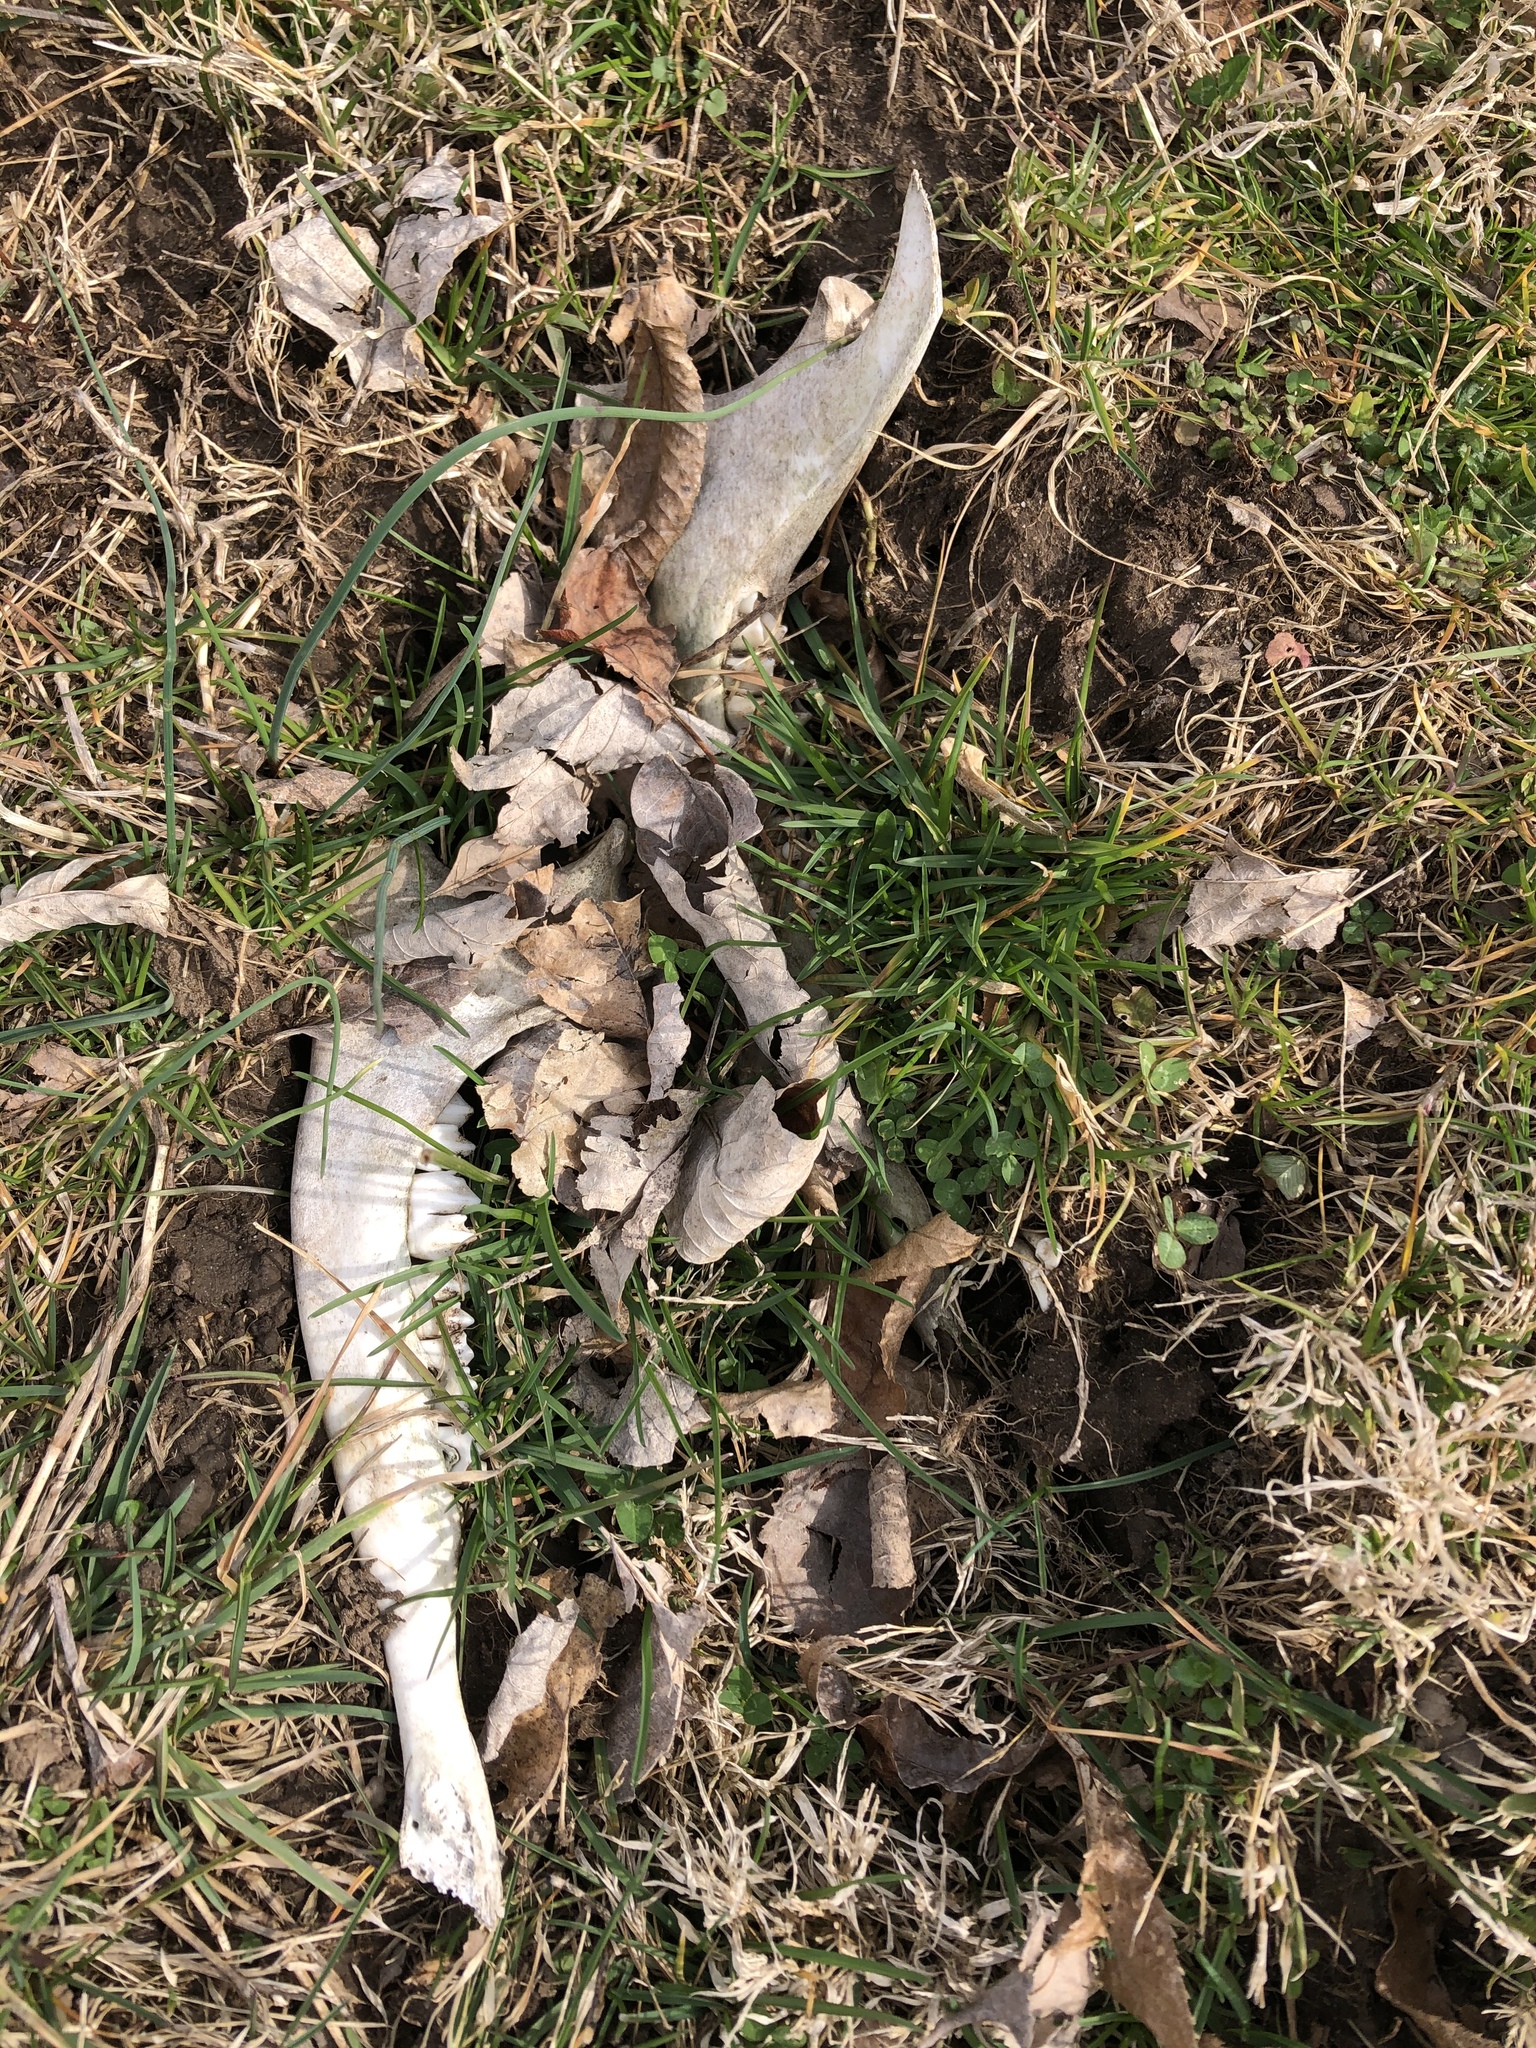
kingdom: Animalia
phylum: Chordata
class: Mammalia
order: Artiodactyla
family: Cervidae
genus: Odocoileus
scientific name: Odocoileus virginianus
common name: White-tailed deer
